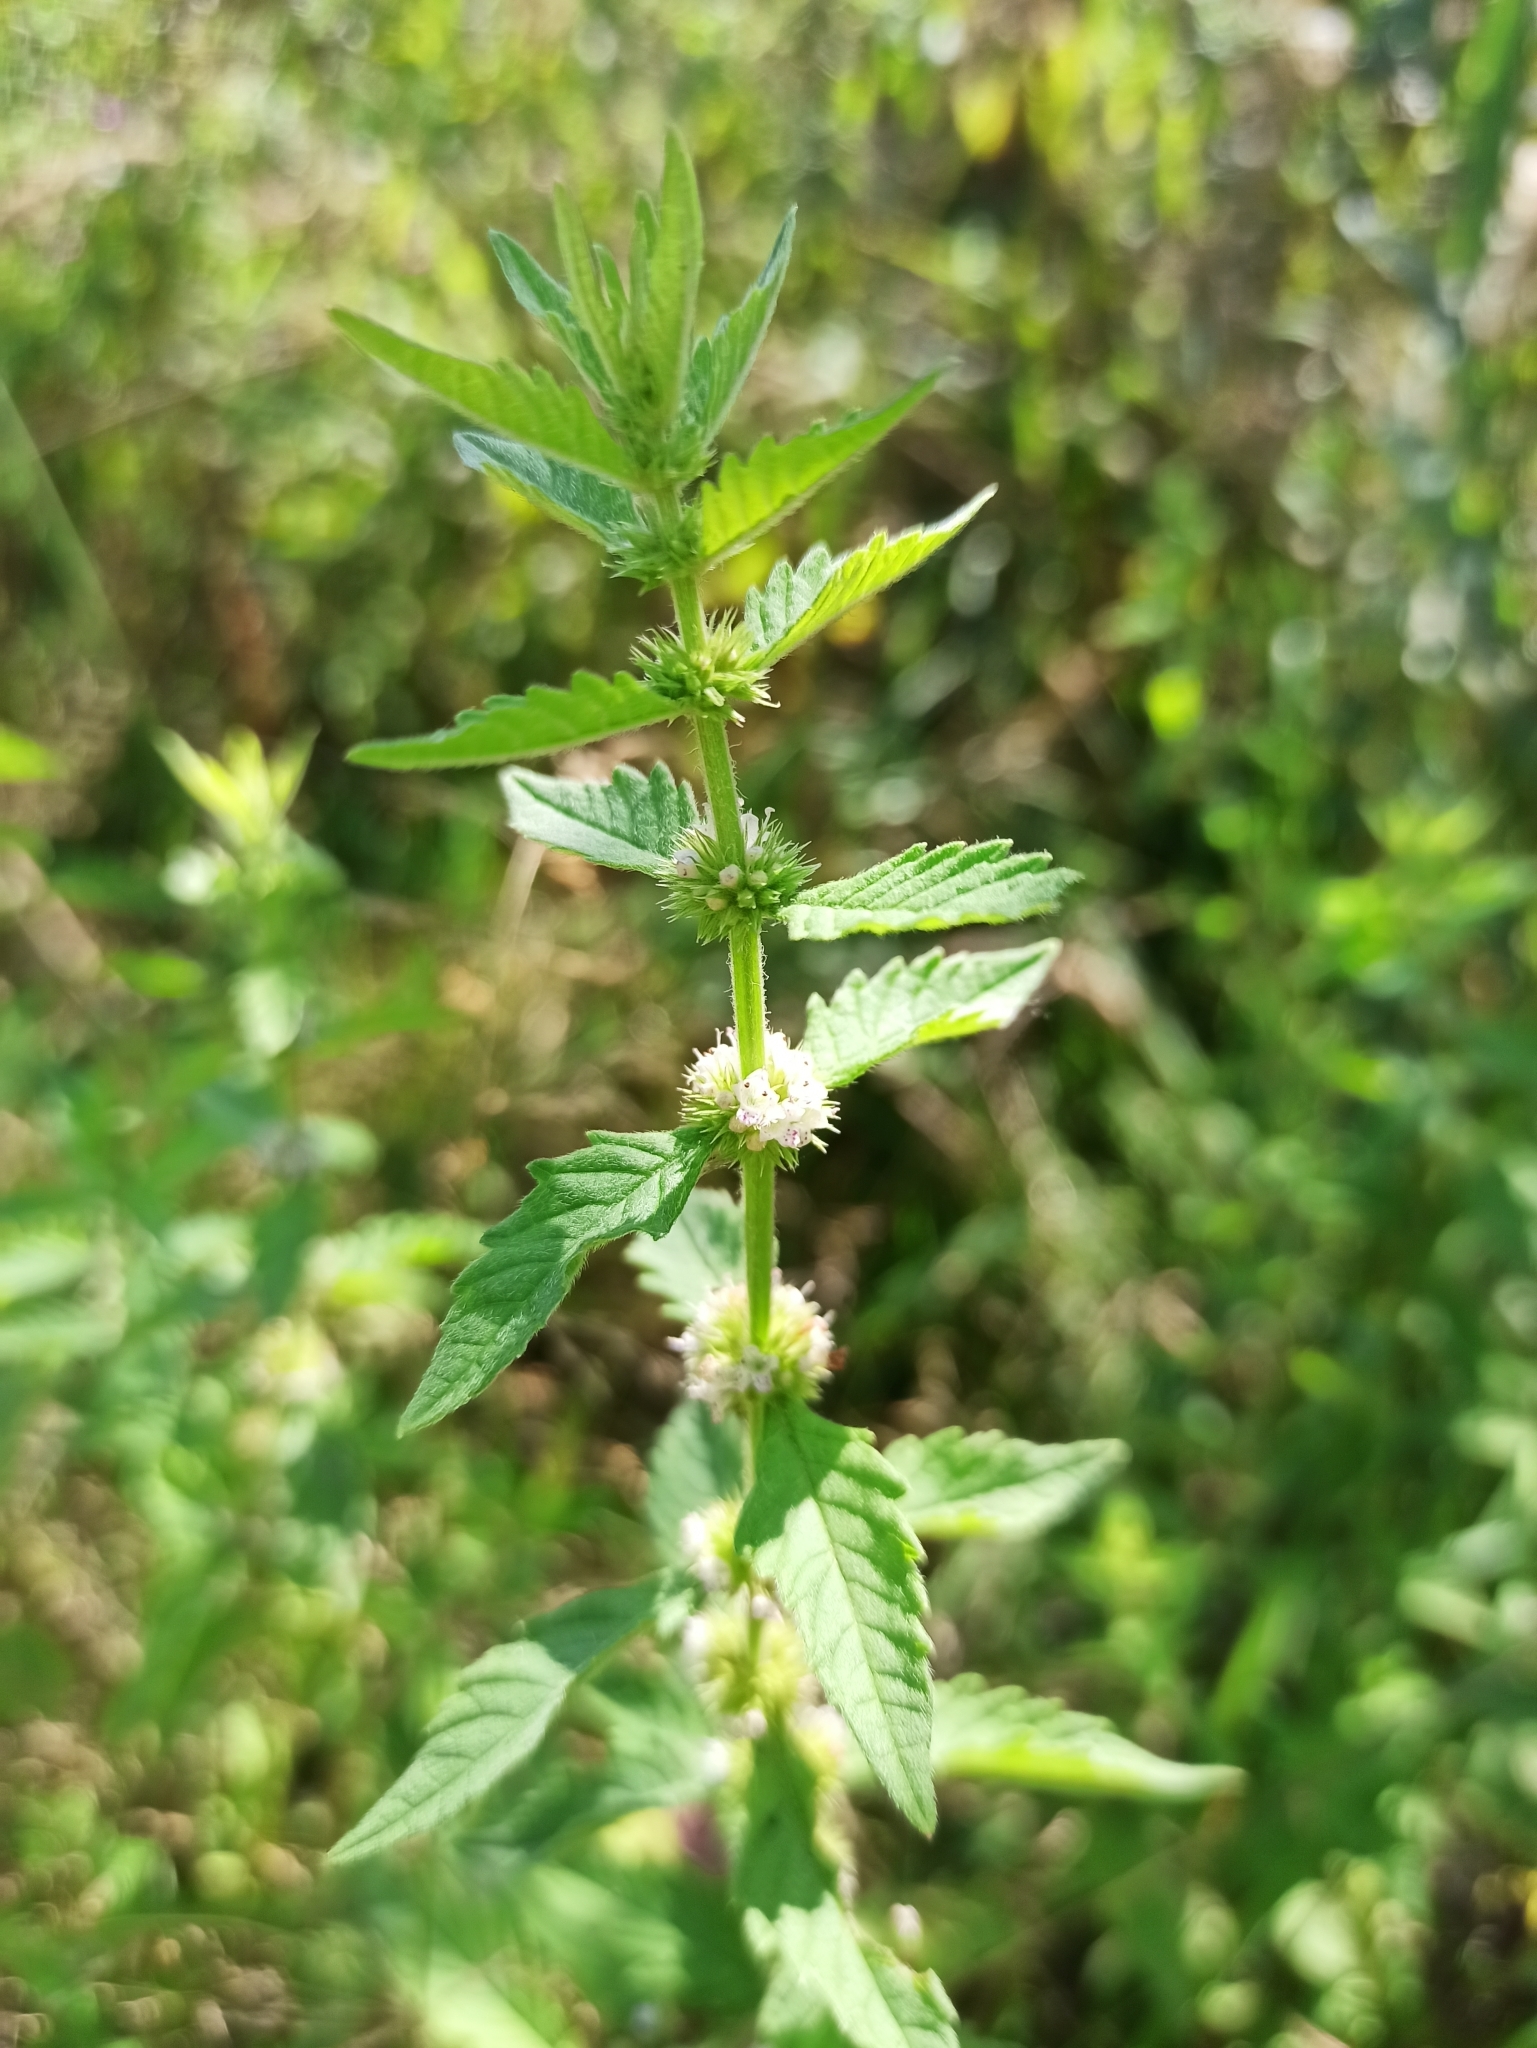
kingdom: Plantae
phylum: Tracheophyta
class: Magnoliopsida
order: Lamiales
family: Lamiaceae
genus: Lycopus
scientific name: Lycopus europaeus
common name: European bugleweed
